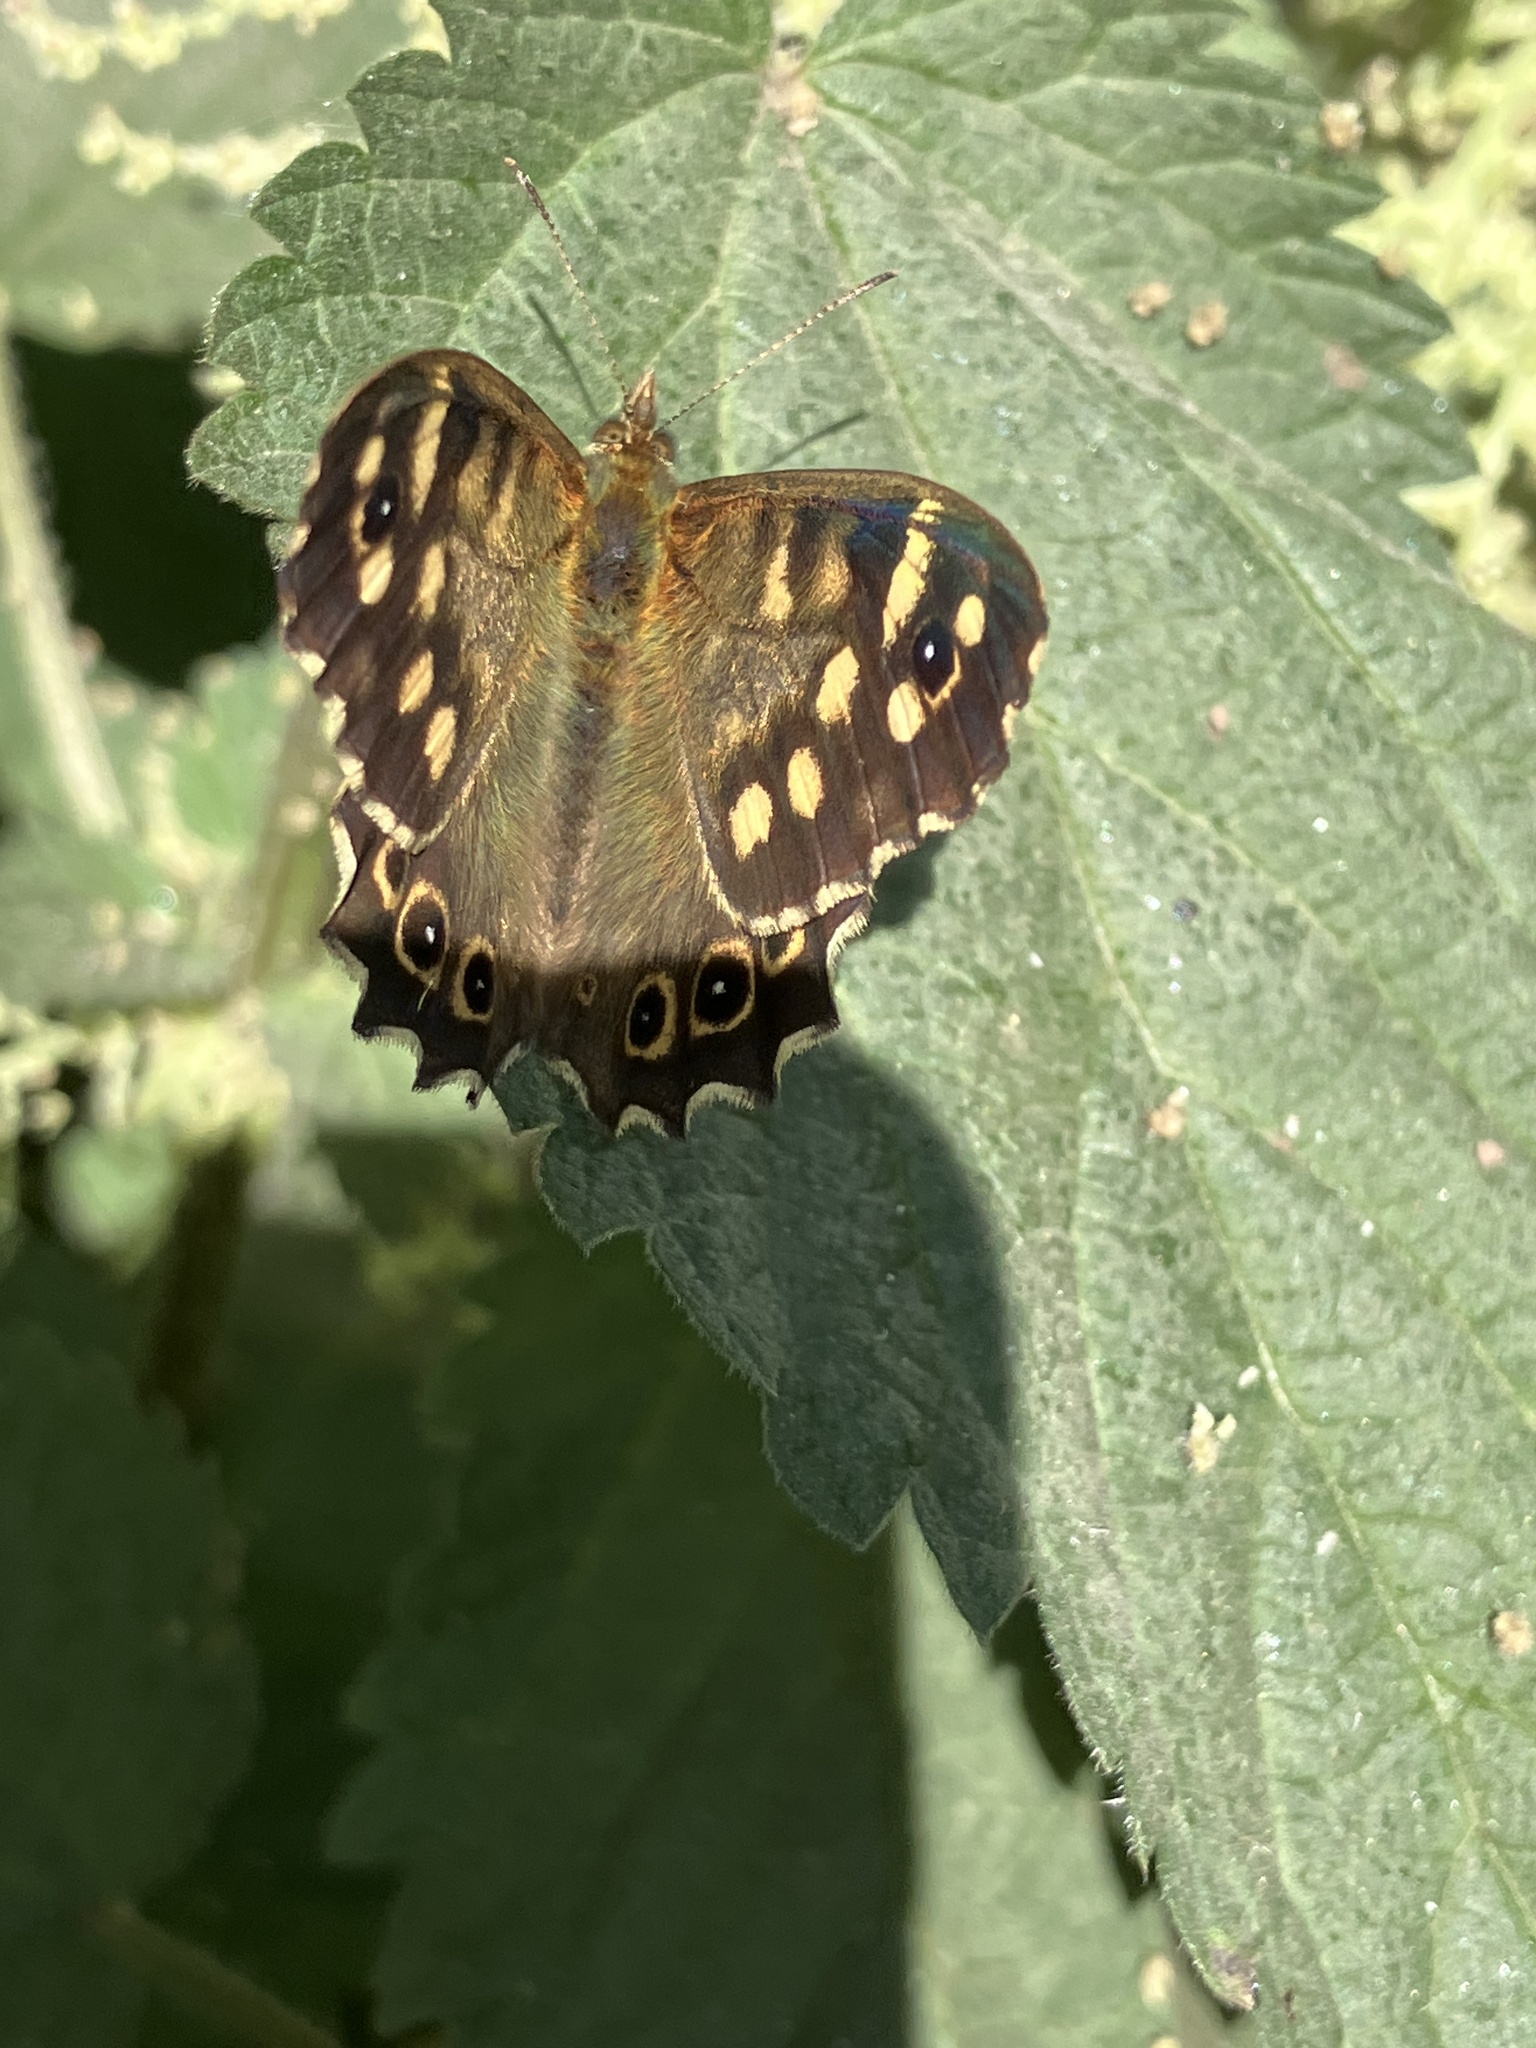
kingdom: Animalia
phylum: Arthropoda
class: Insecta
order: Lepidoptera
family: Nymphalidae
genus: Pararge
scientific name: Pararge aegeria
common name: Speckled wood
